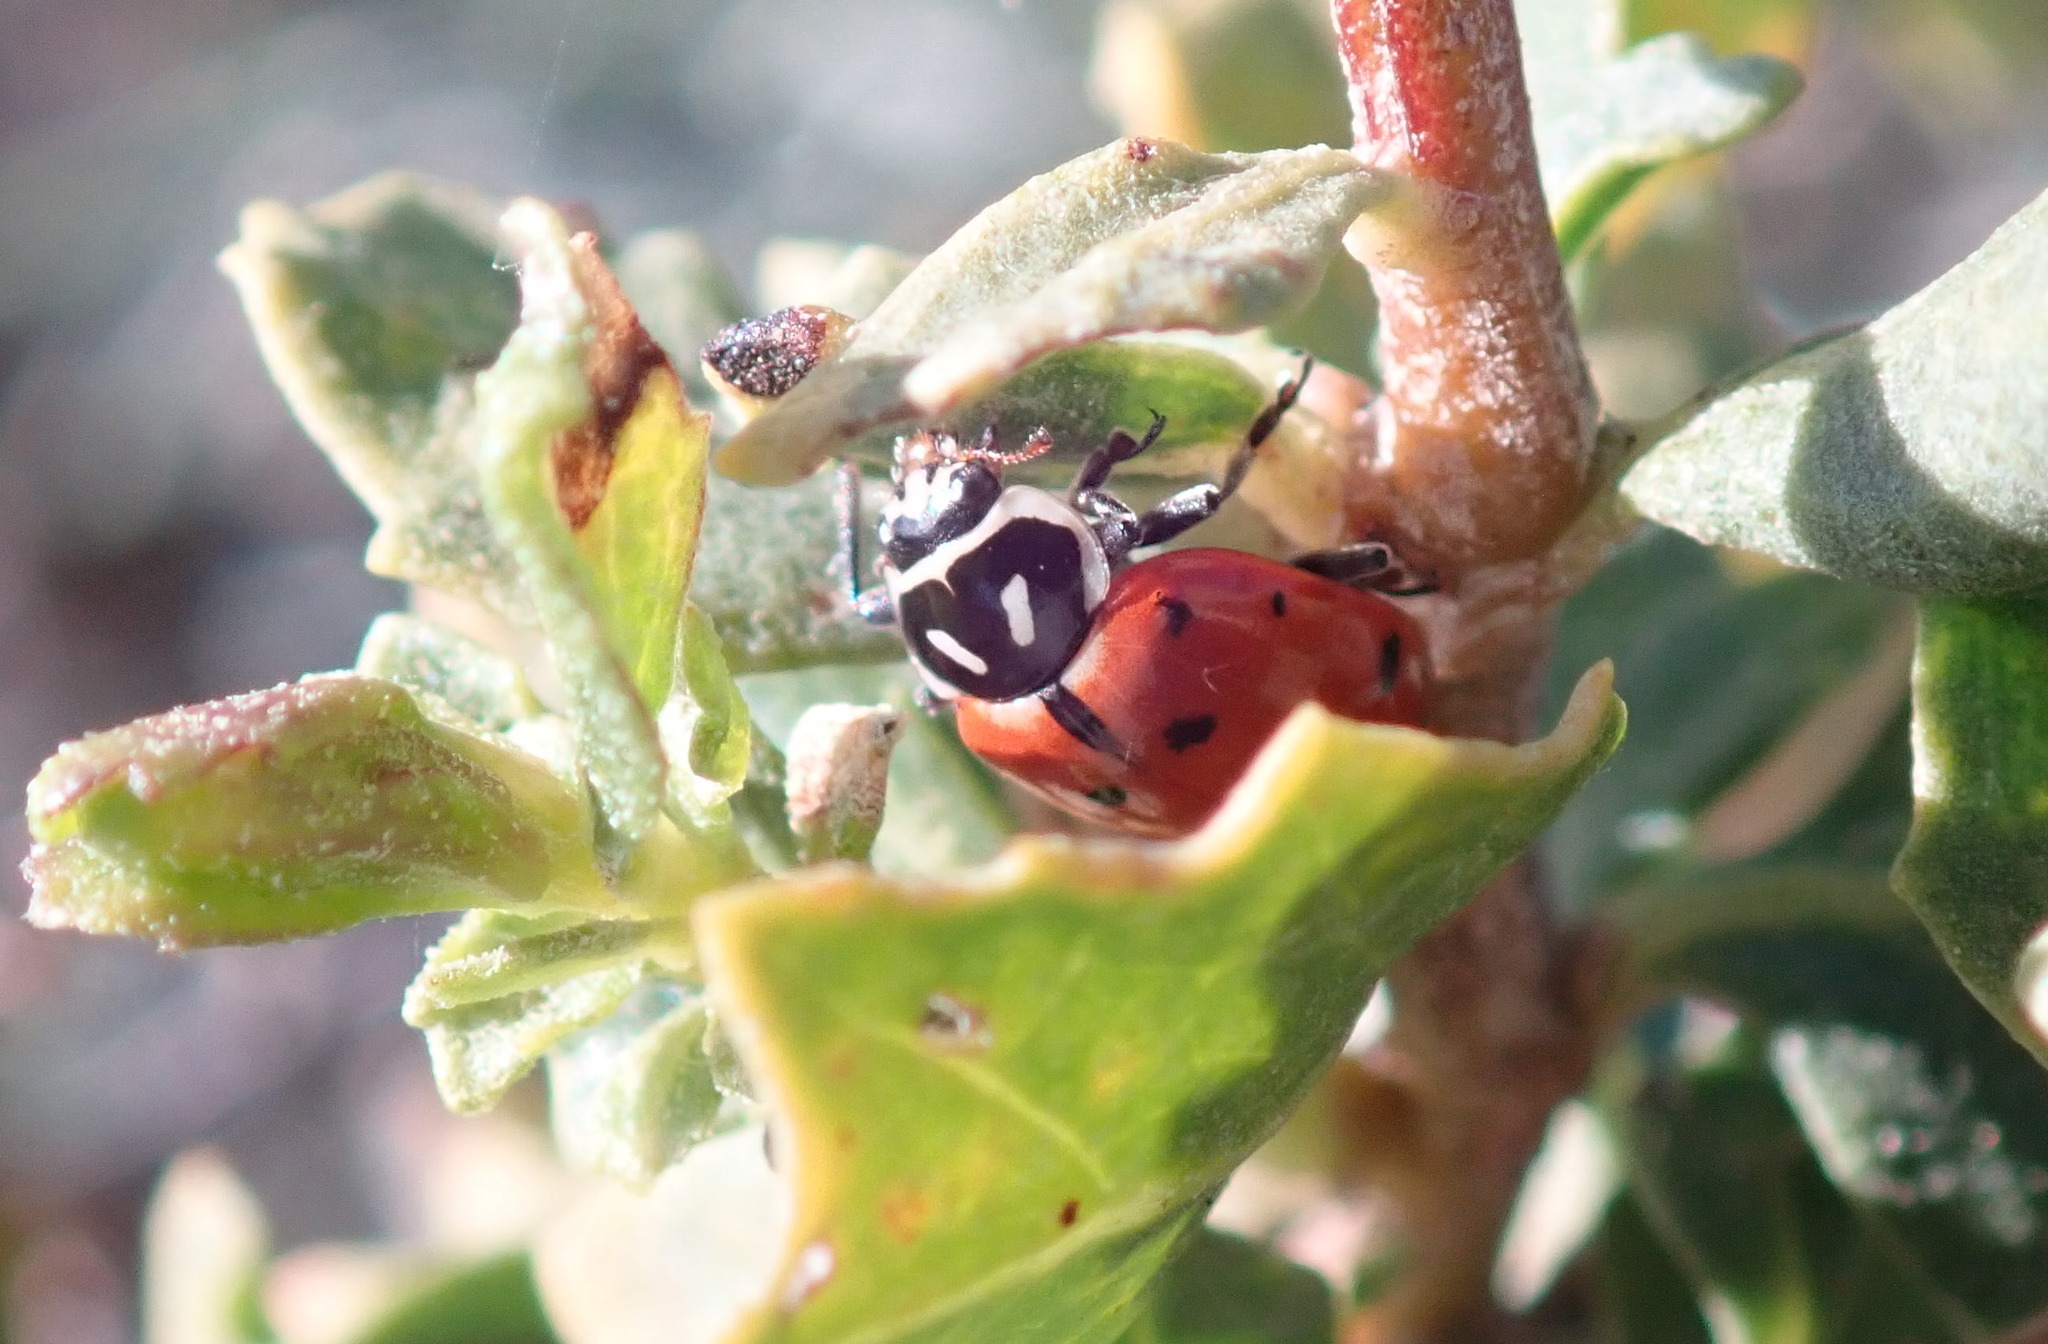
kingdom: Animalia
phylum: Arthropoda
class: Insecta
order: Coleoptera
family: Coccinellidae
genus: Hippodamia
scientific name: Hippodamia convergens
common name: Convergent lady beetle
